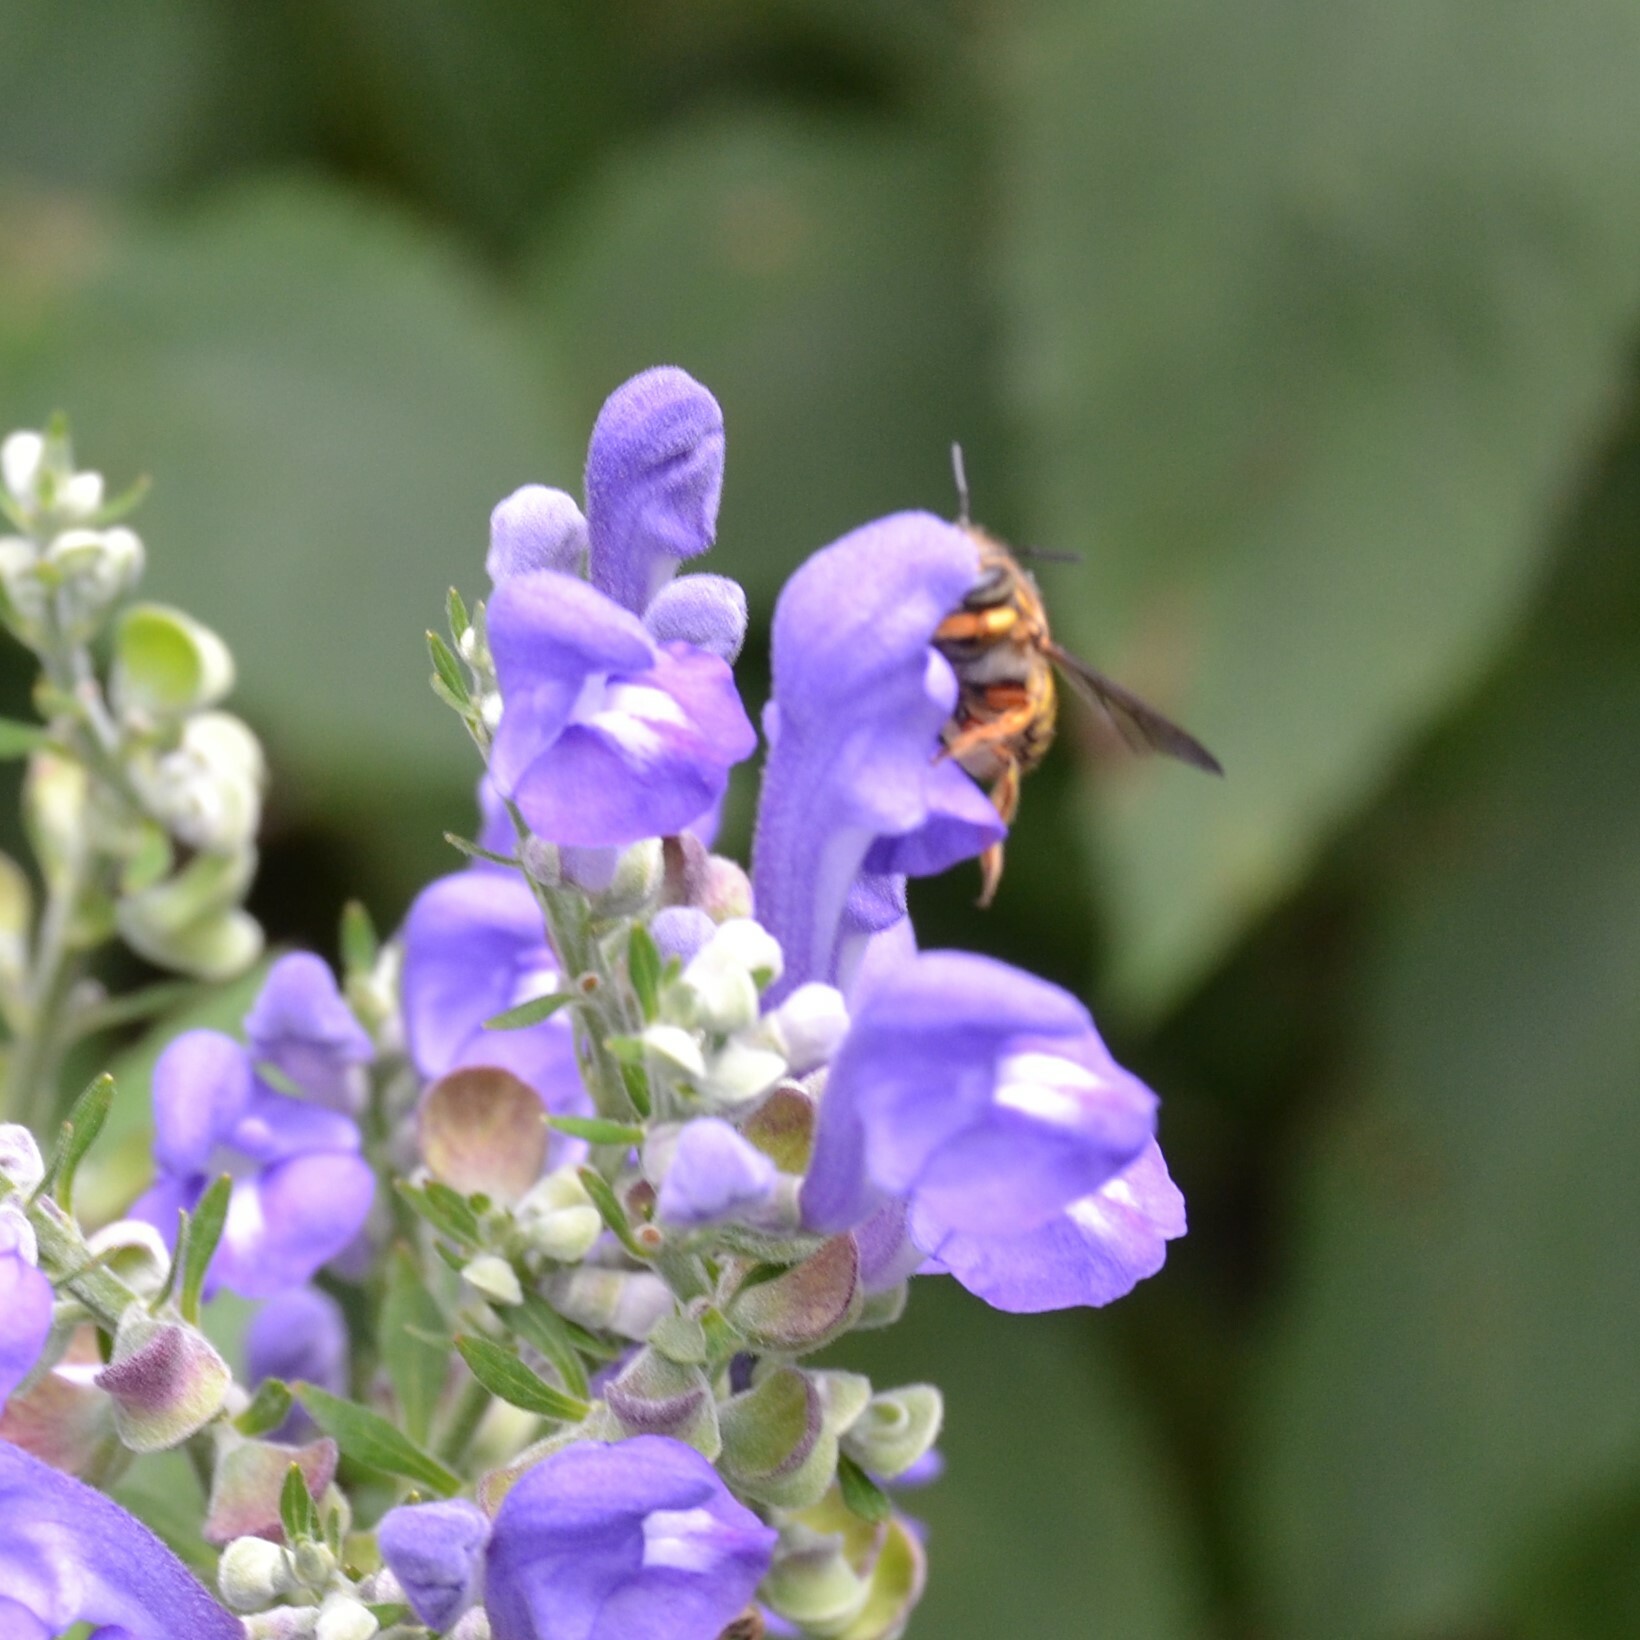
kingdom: Animalia
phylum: Arthropoda
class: Insecta
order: Hymenoptera
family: Megachilidae
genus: Anthidium
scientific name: Anthidium manicatum
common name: Wool carder bee
